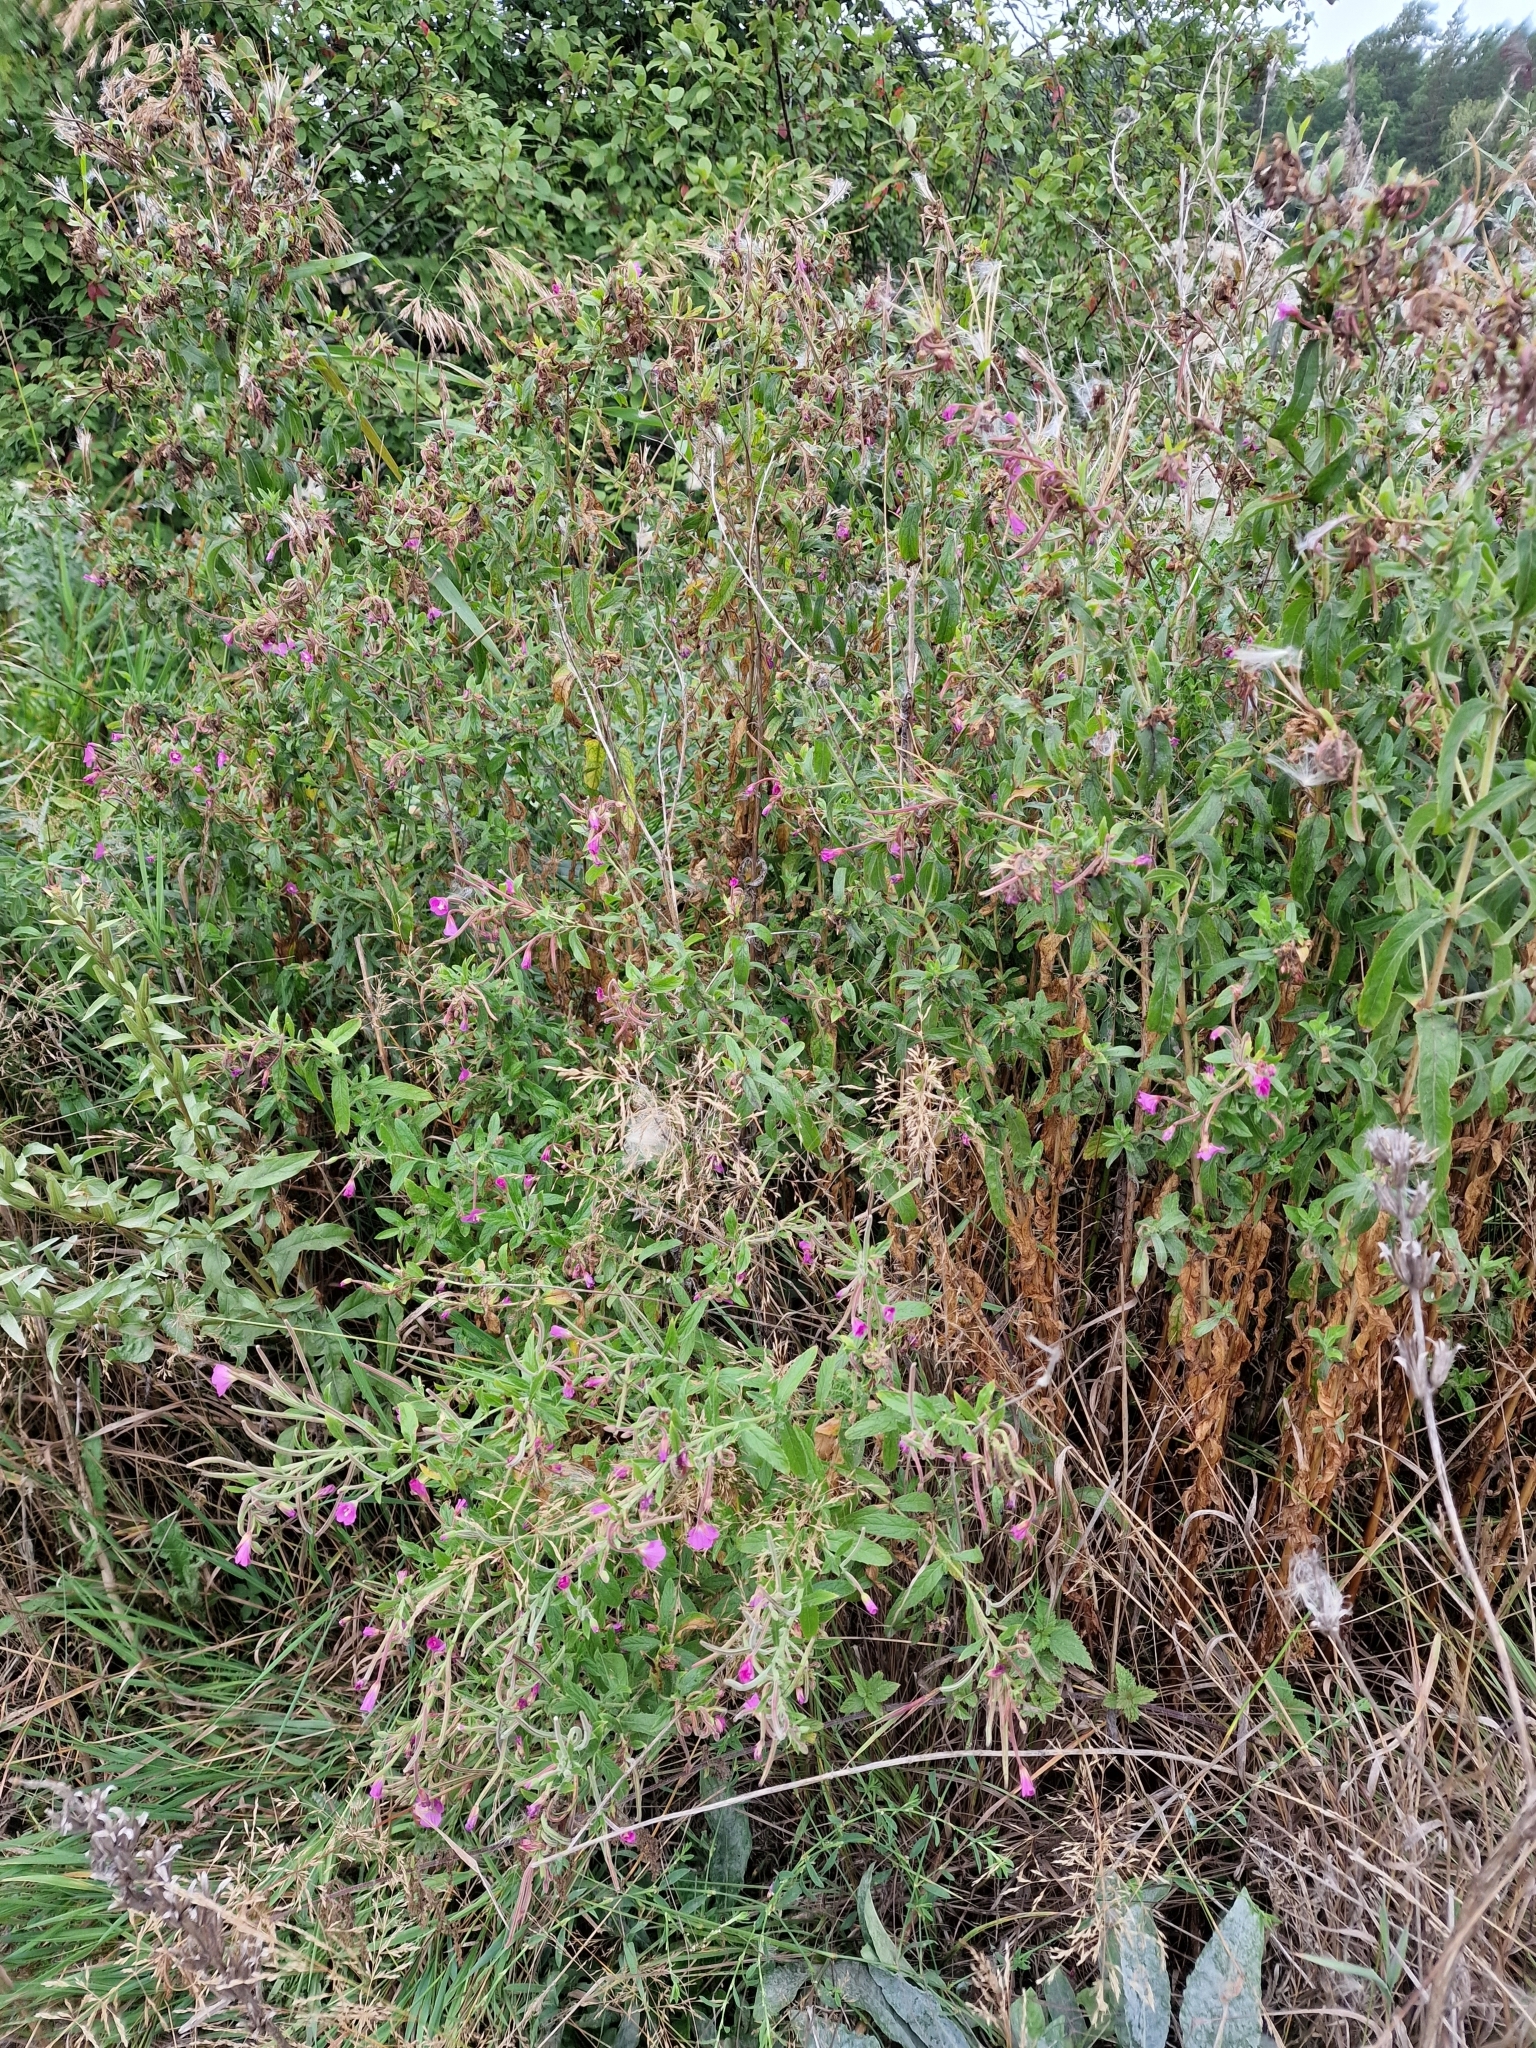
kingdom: Plantae
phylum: Tracheophyta
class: Magnoliopsida
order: Myrtales
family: Onagraceae
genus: Epilobium
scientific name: Epilobium hirsutum
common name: Great willowherb
